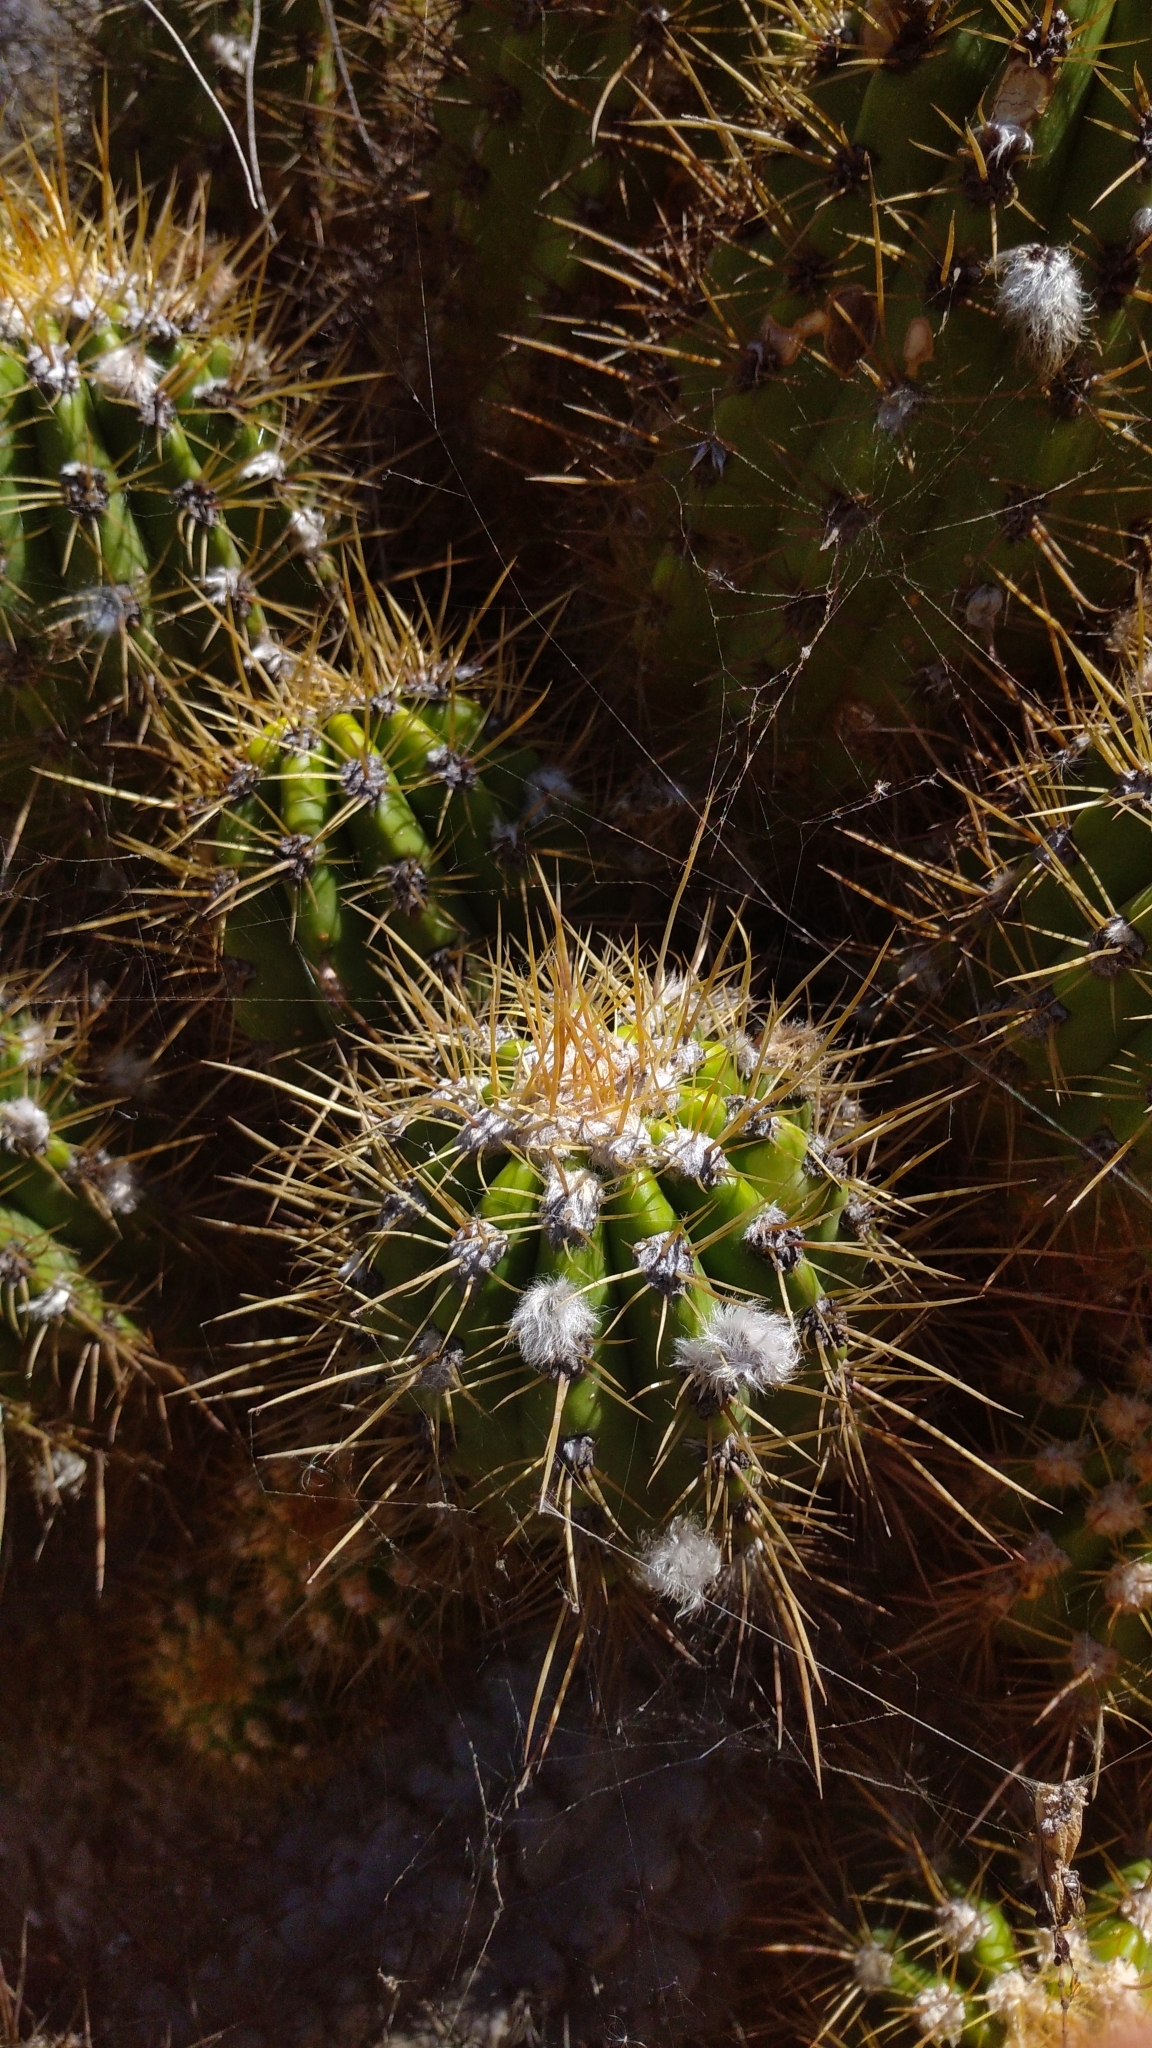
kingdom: Plantae
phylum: Tracheophyta
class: Magnoliopsida
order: Caryophyllales
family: Cactaceae
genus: Soehrensia
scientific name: Soehrensia candicans
